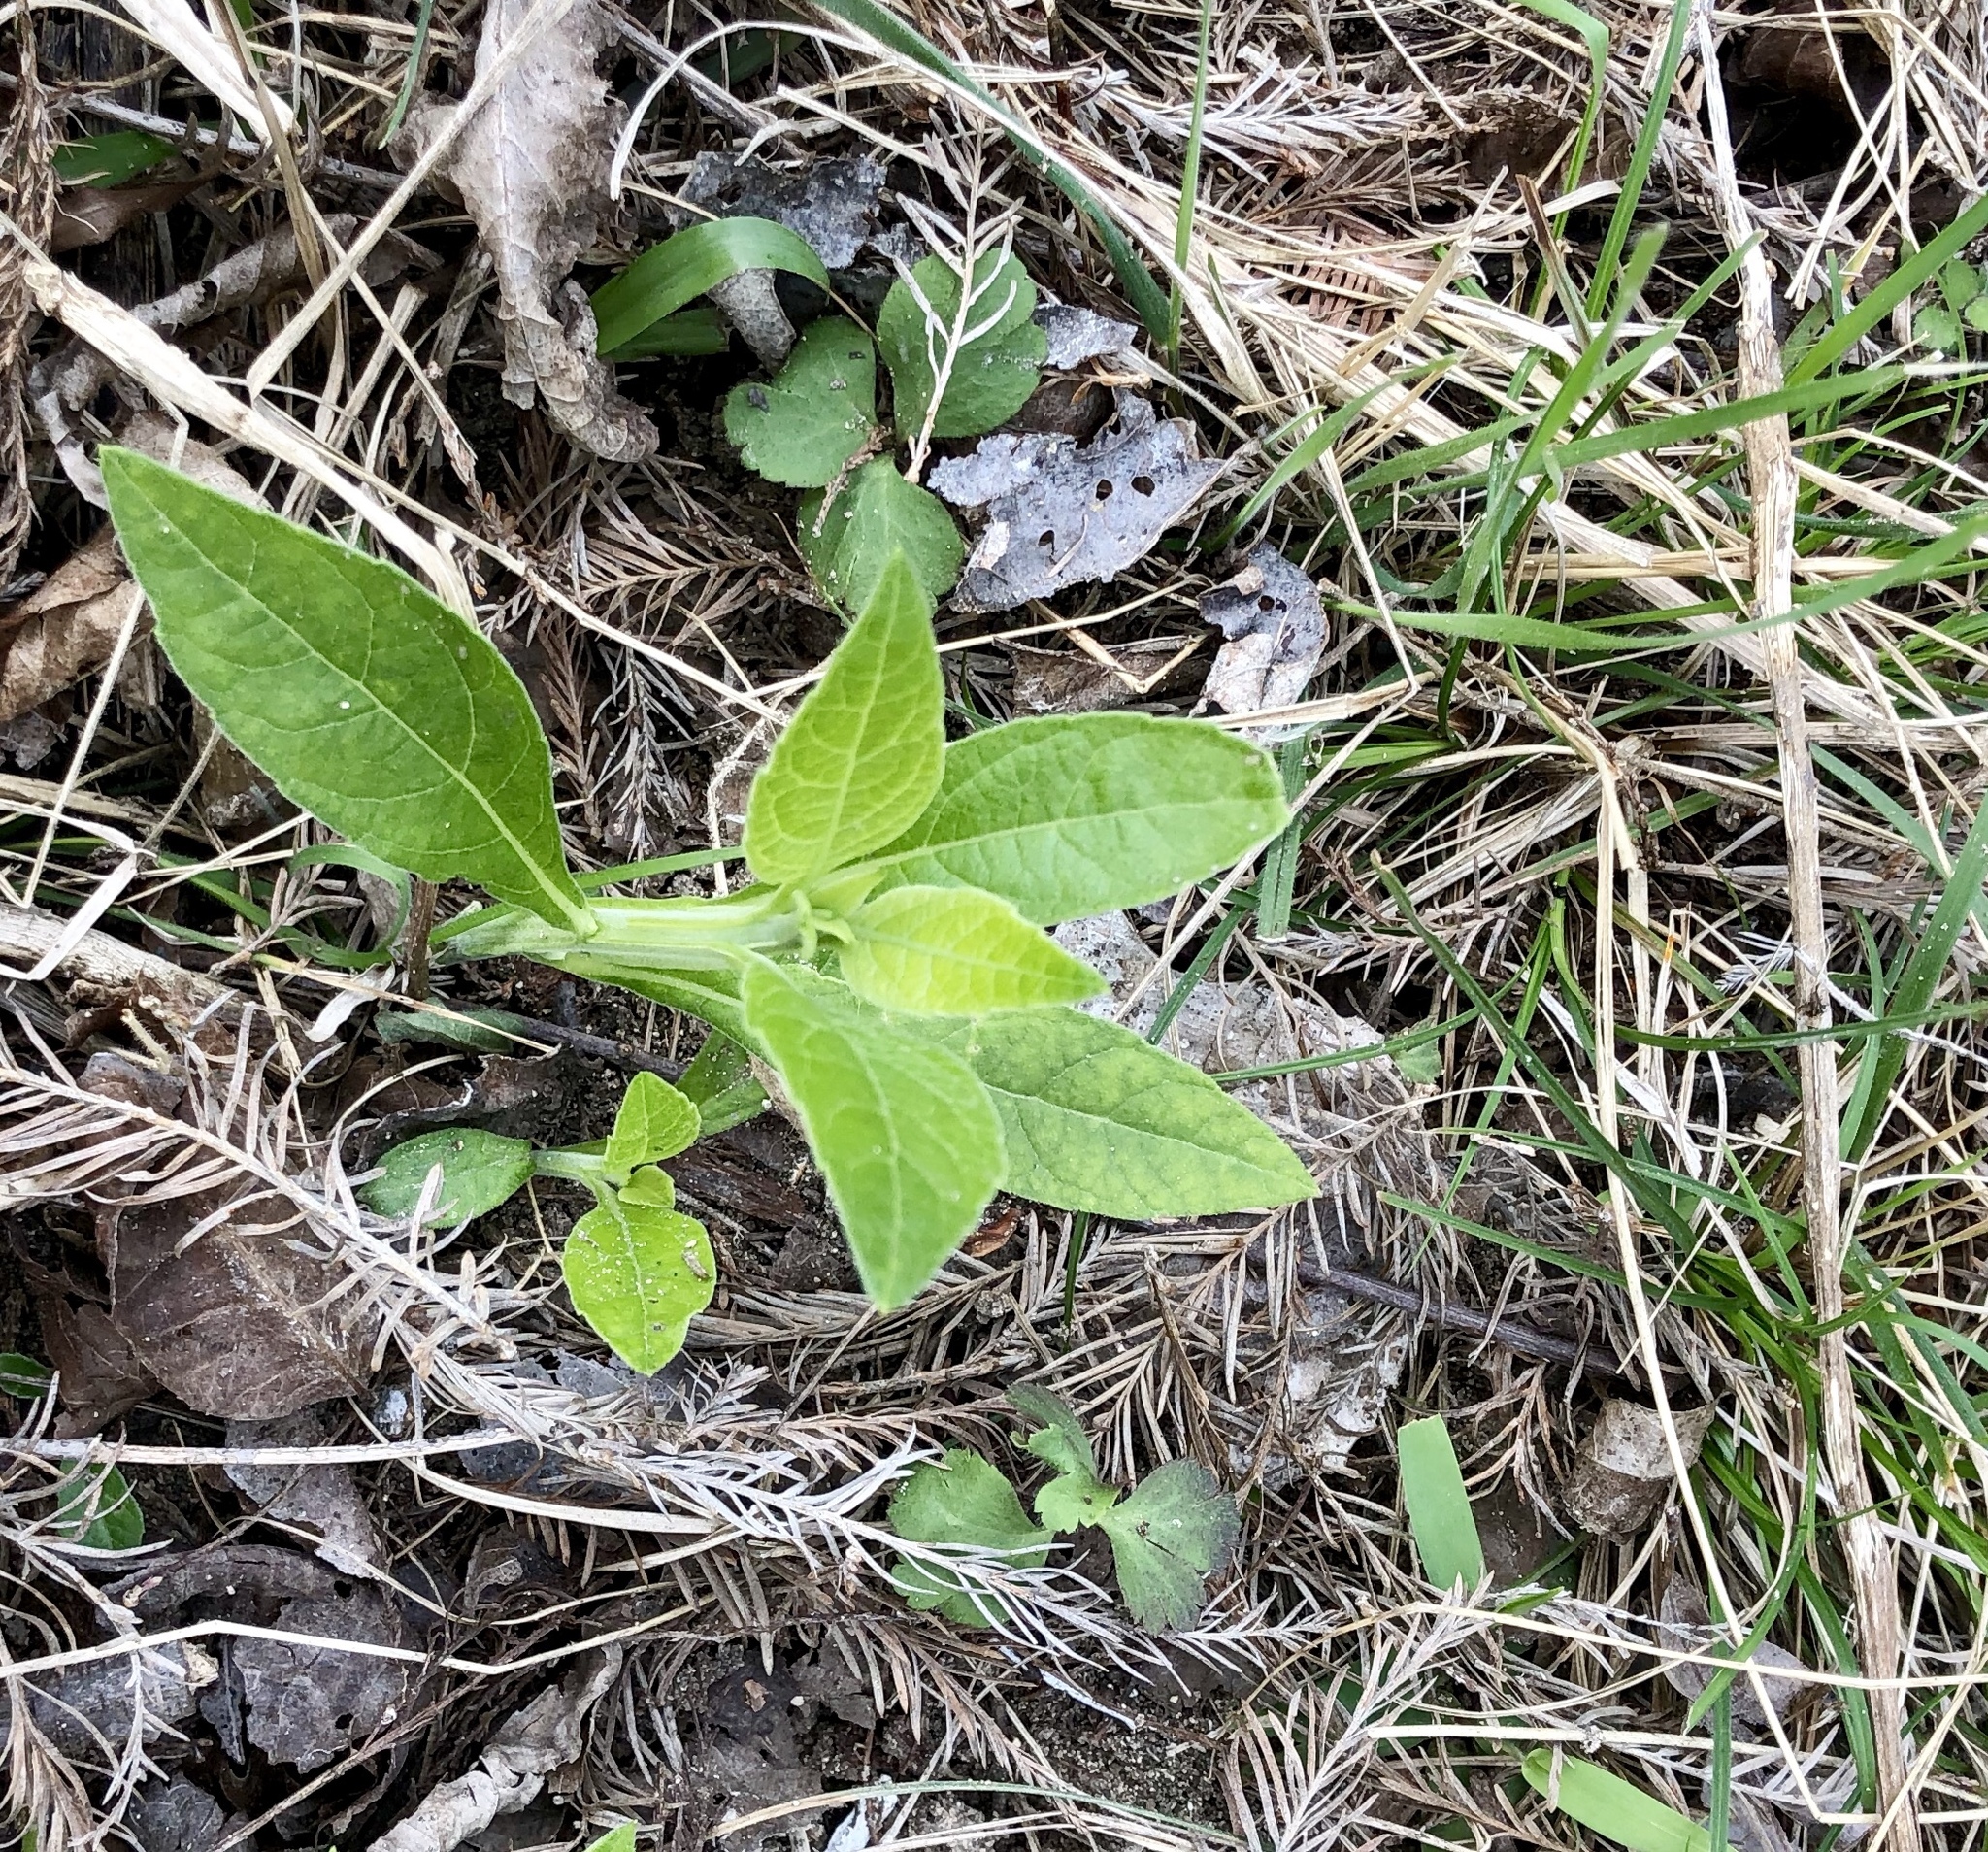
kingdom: Plantae
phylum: Tracheophyta
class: Magnoliopsida
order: Asterales
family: Asteraceae
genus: Verbesina
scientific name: Verbesina virginica
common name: Frostweed
